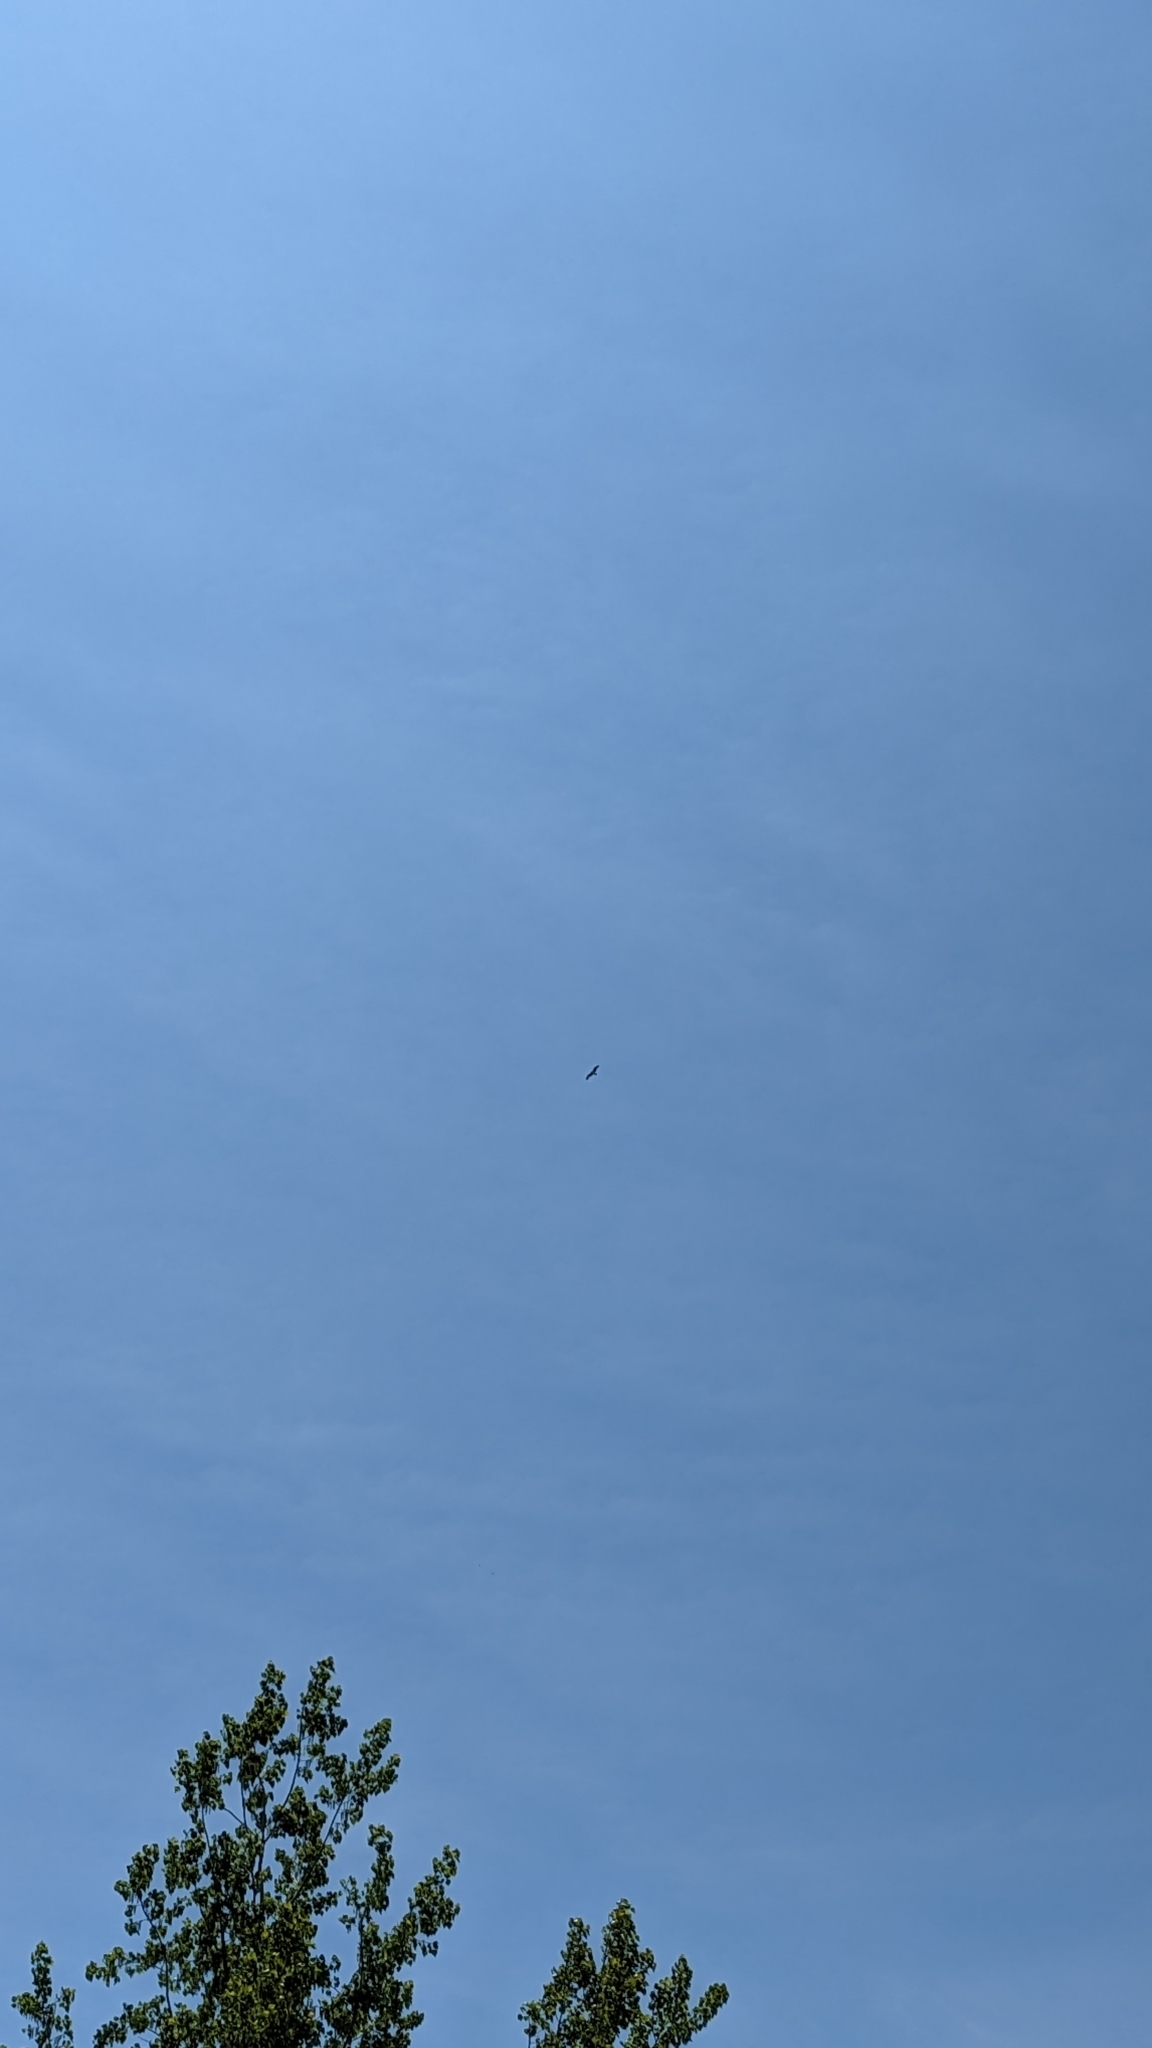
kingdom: Animalia
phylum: Chordata
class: Aves
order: Accipitriformes
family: Pandionidae
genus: Pandion
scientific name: Pandion haliaetus
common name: Osprey
